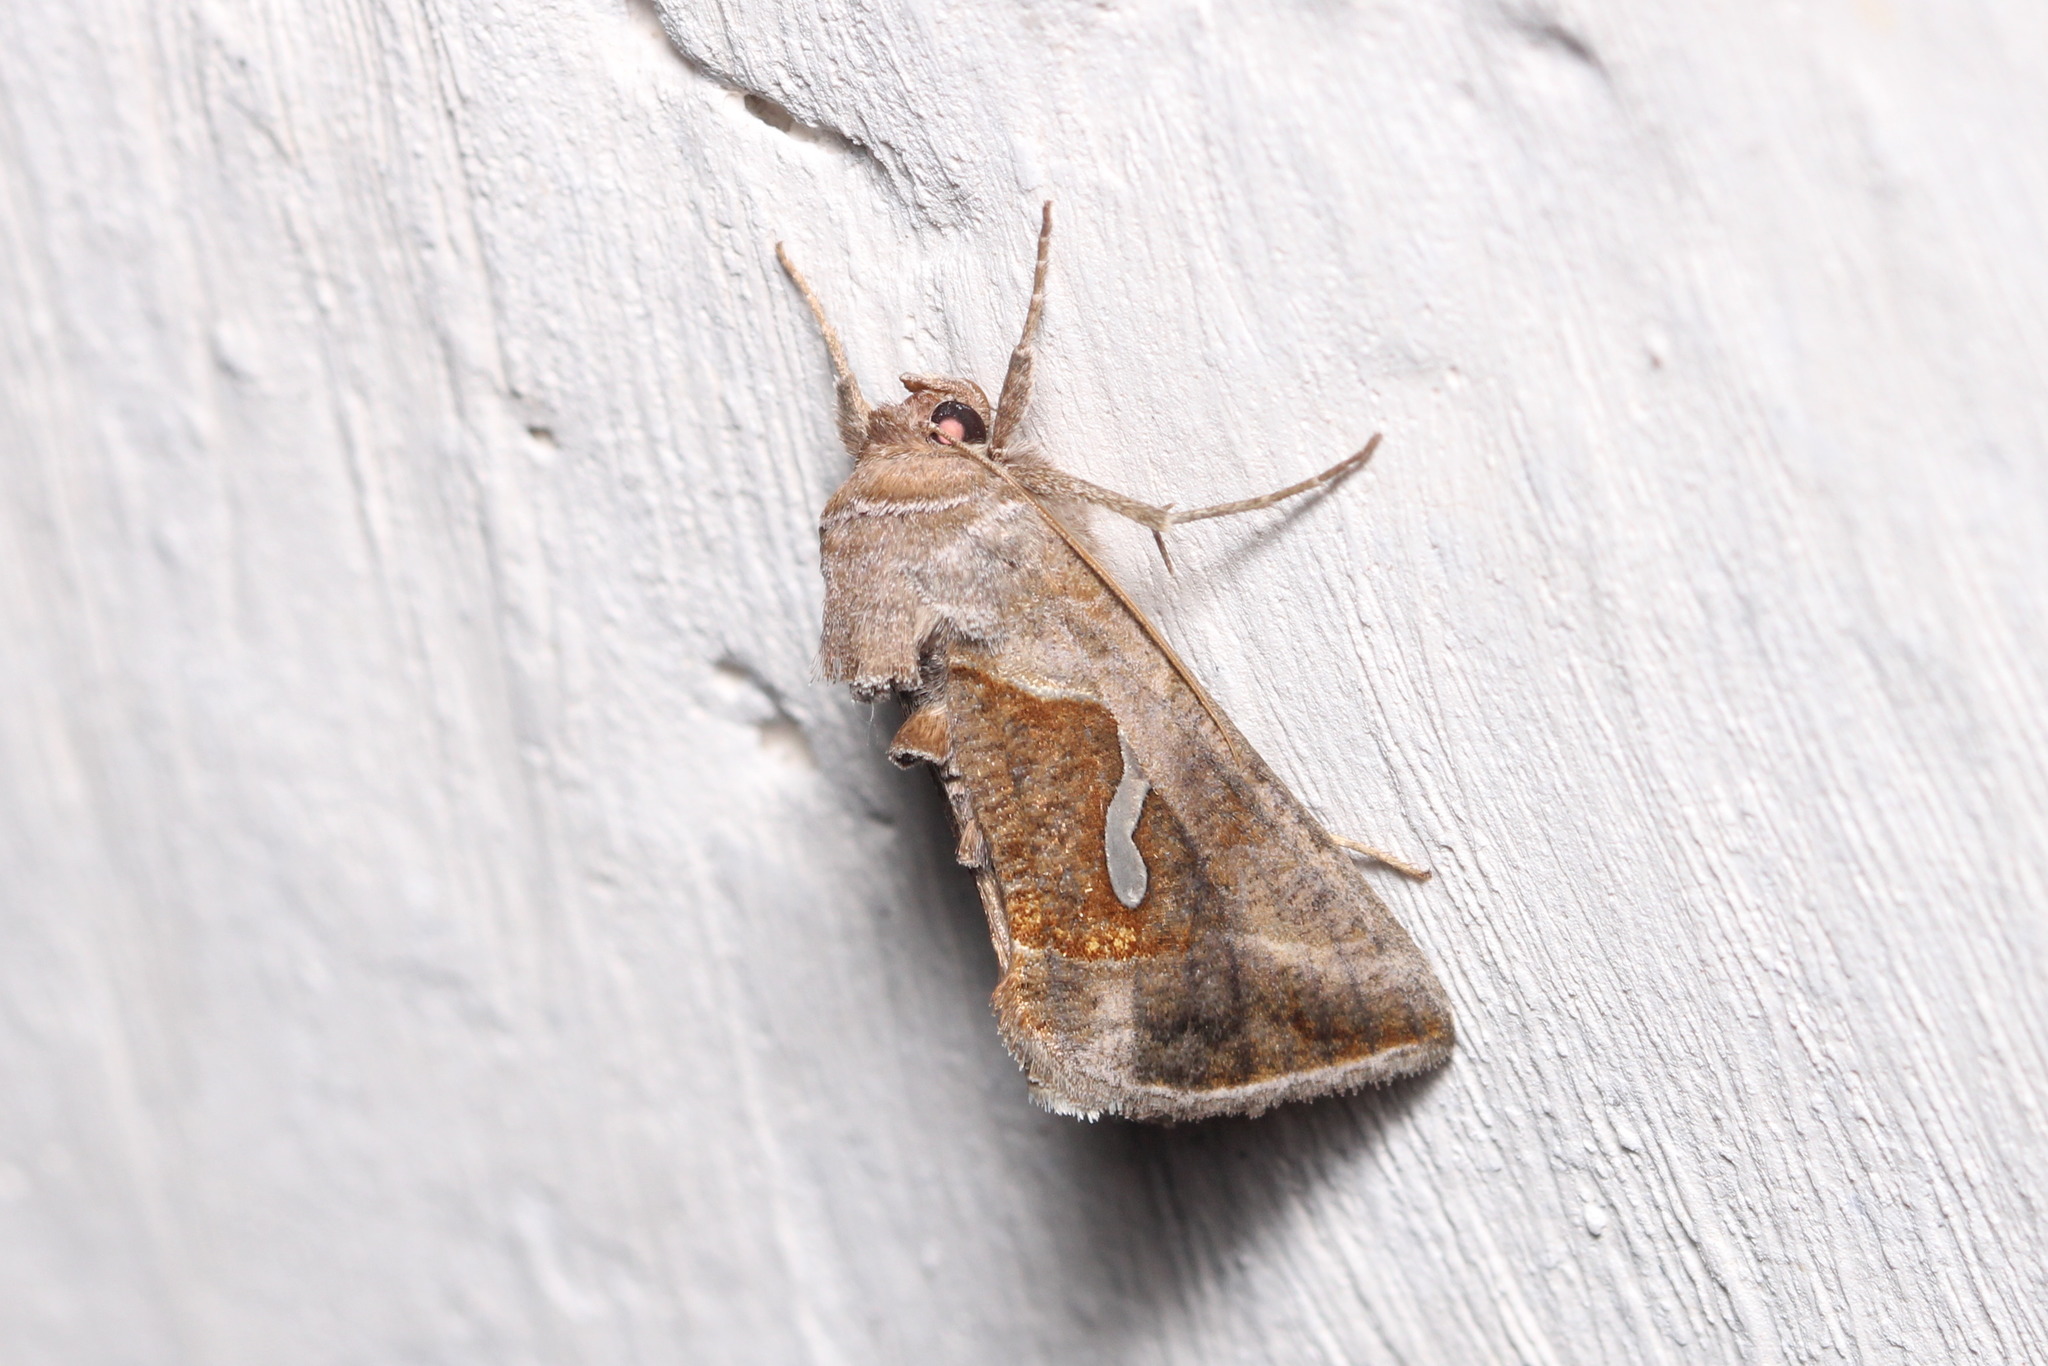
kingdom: Animalia
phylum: Arthropoda
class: Insecta
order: Lepidoptera
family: Noctuidae
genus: Macdunnoughia
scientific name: Macdunnoughia confusa
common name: Dewick's plusia
